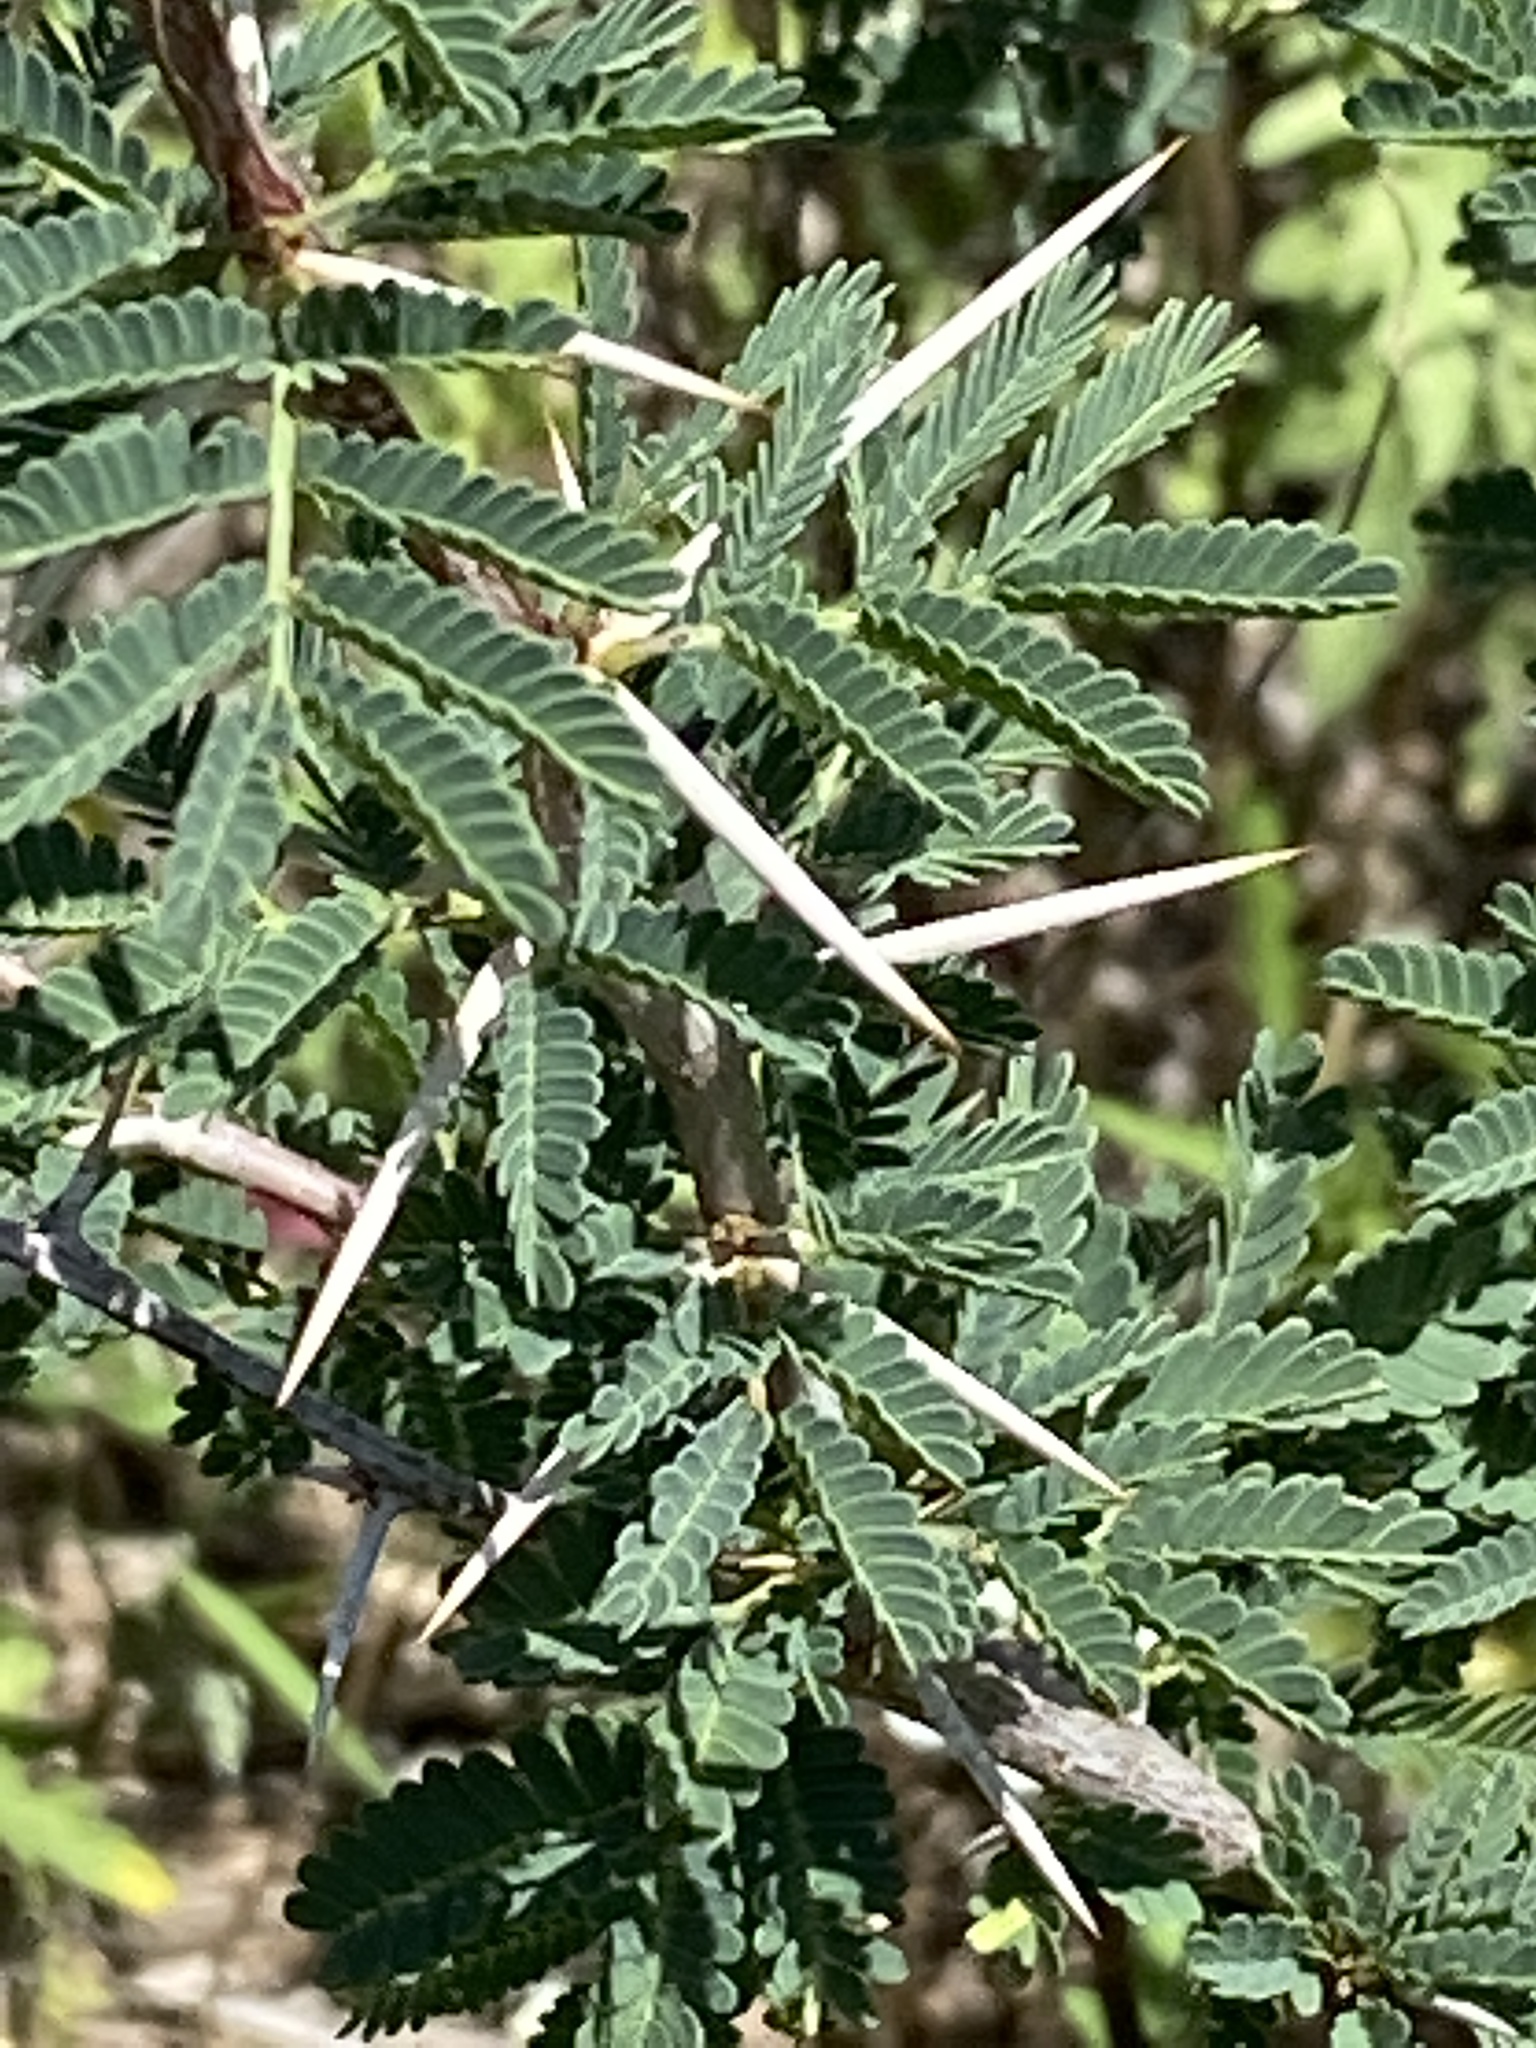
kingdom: Plantae
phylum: Tracheophyta
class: Magnoliopsida
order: Fabales
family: Fabaceae
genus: Vachellia
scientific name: Vachellia farnesiana
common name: Sweet acacia
